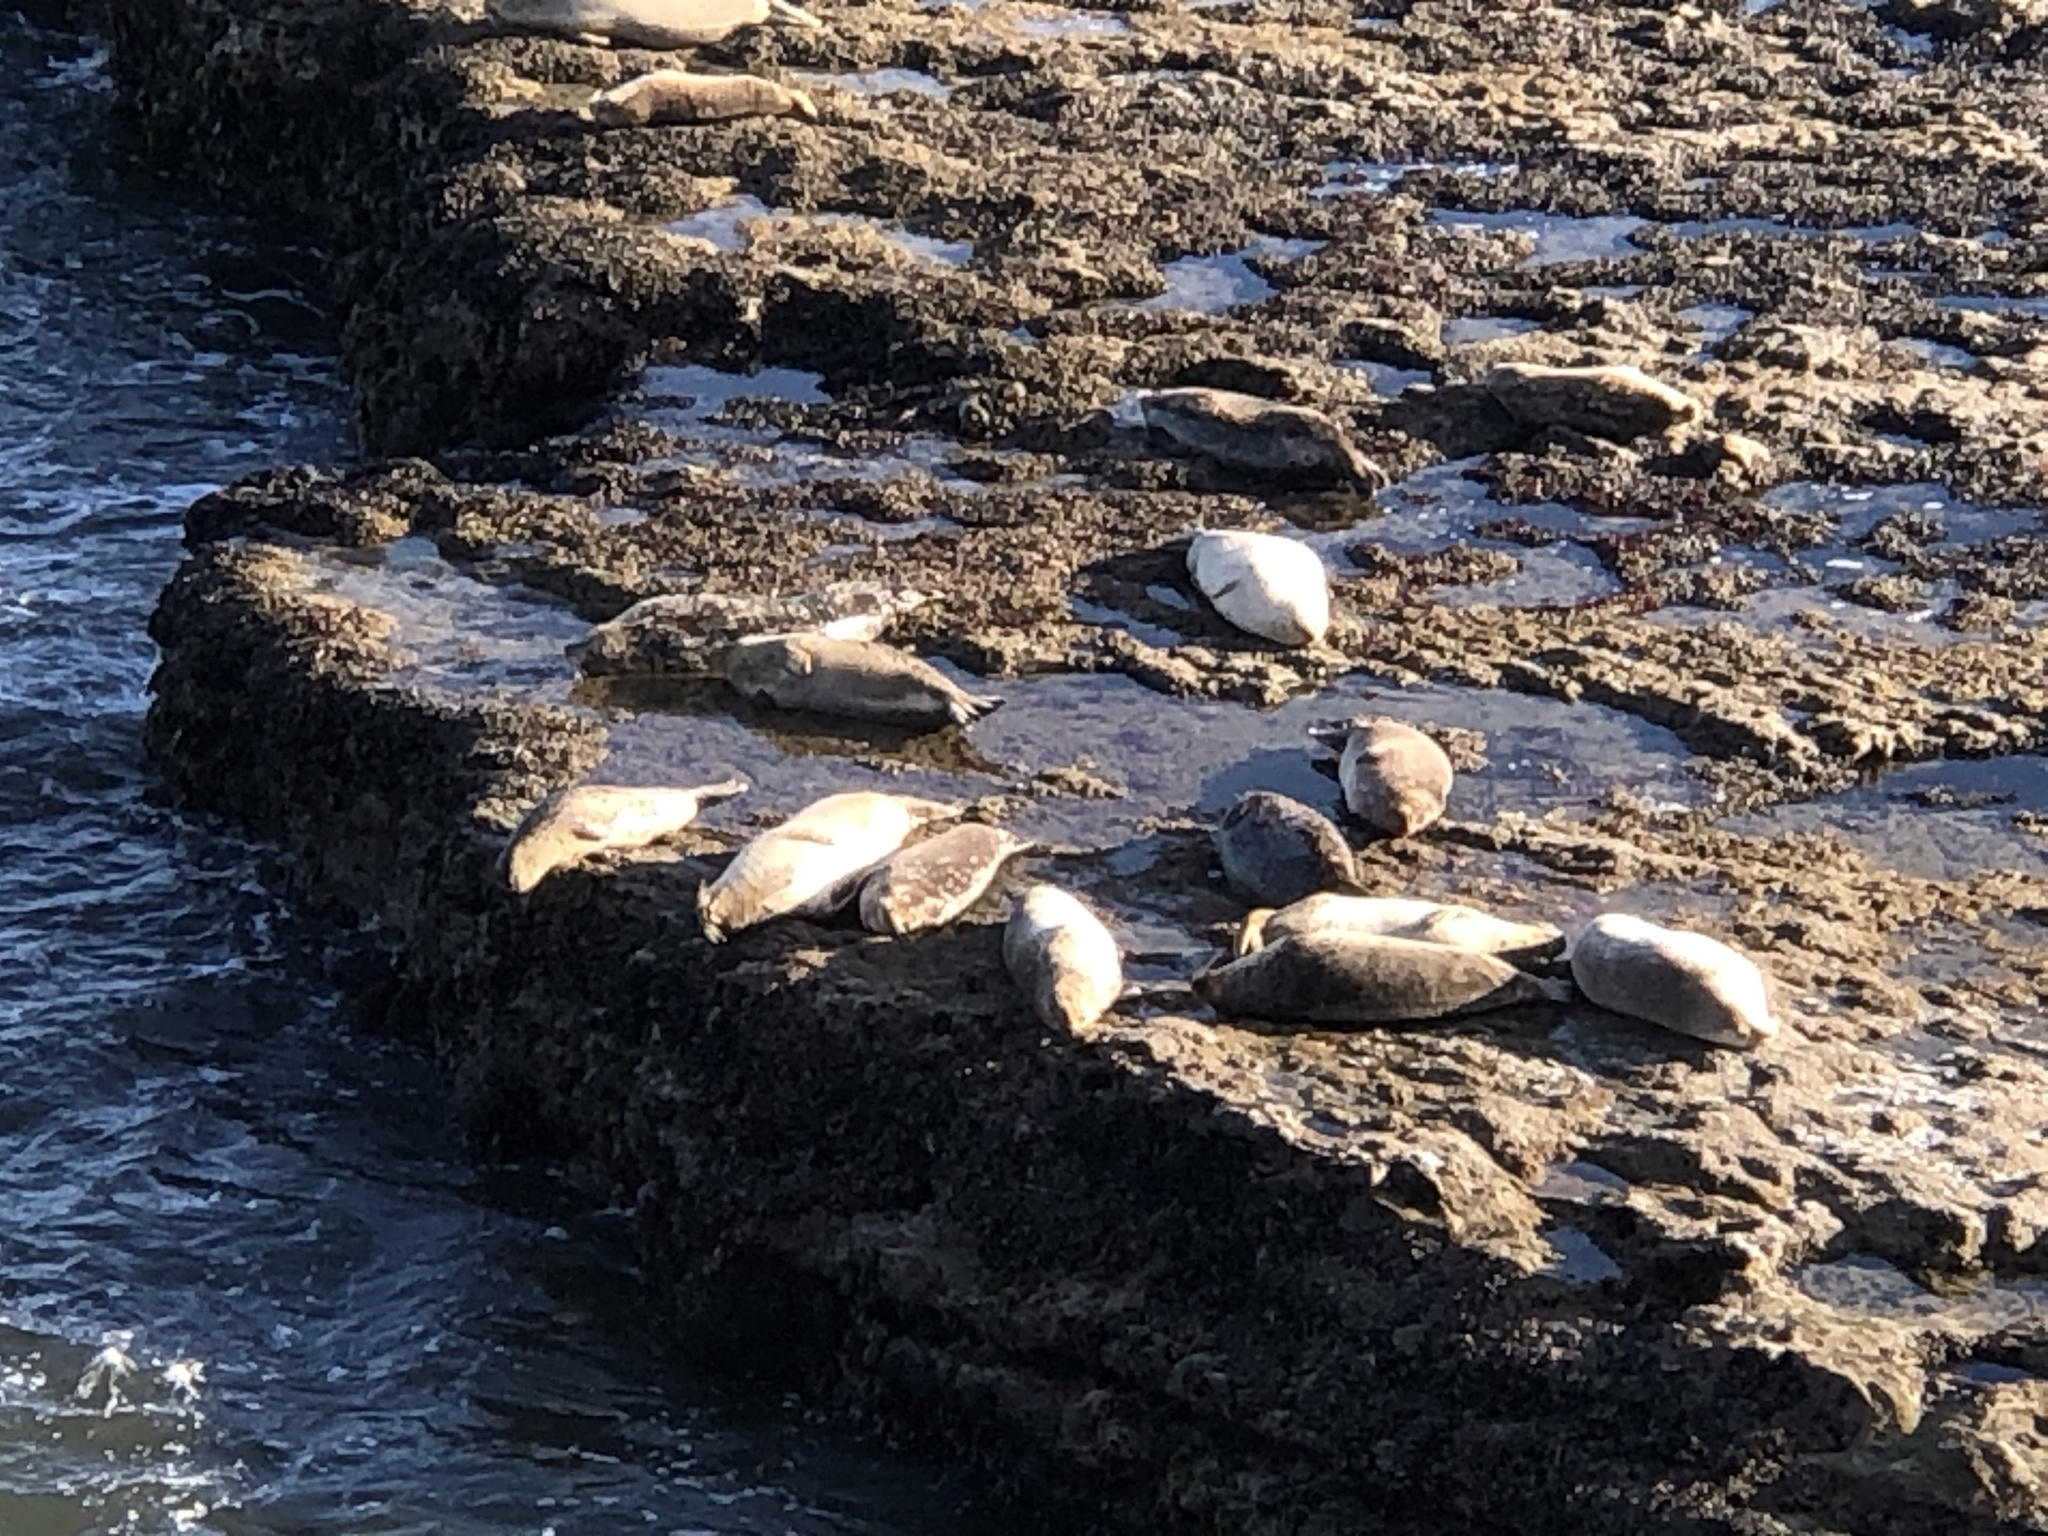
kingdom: Animalia
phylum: Chordata
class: Mammalia
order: Carnivora
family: Phocidae
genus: Phoca
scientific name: Phoca vitulina
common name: Harbor seal
